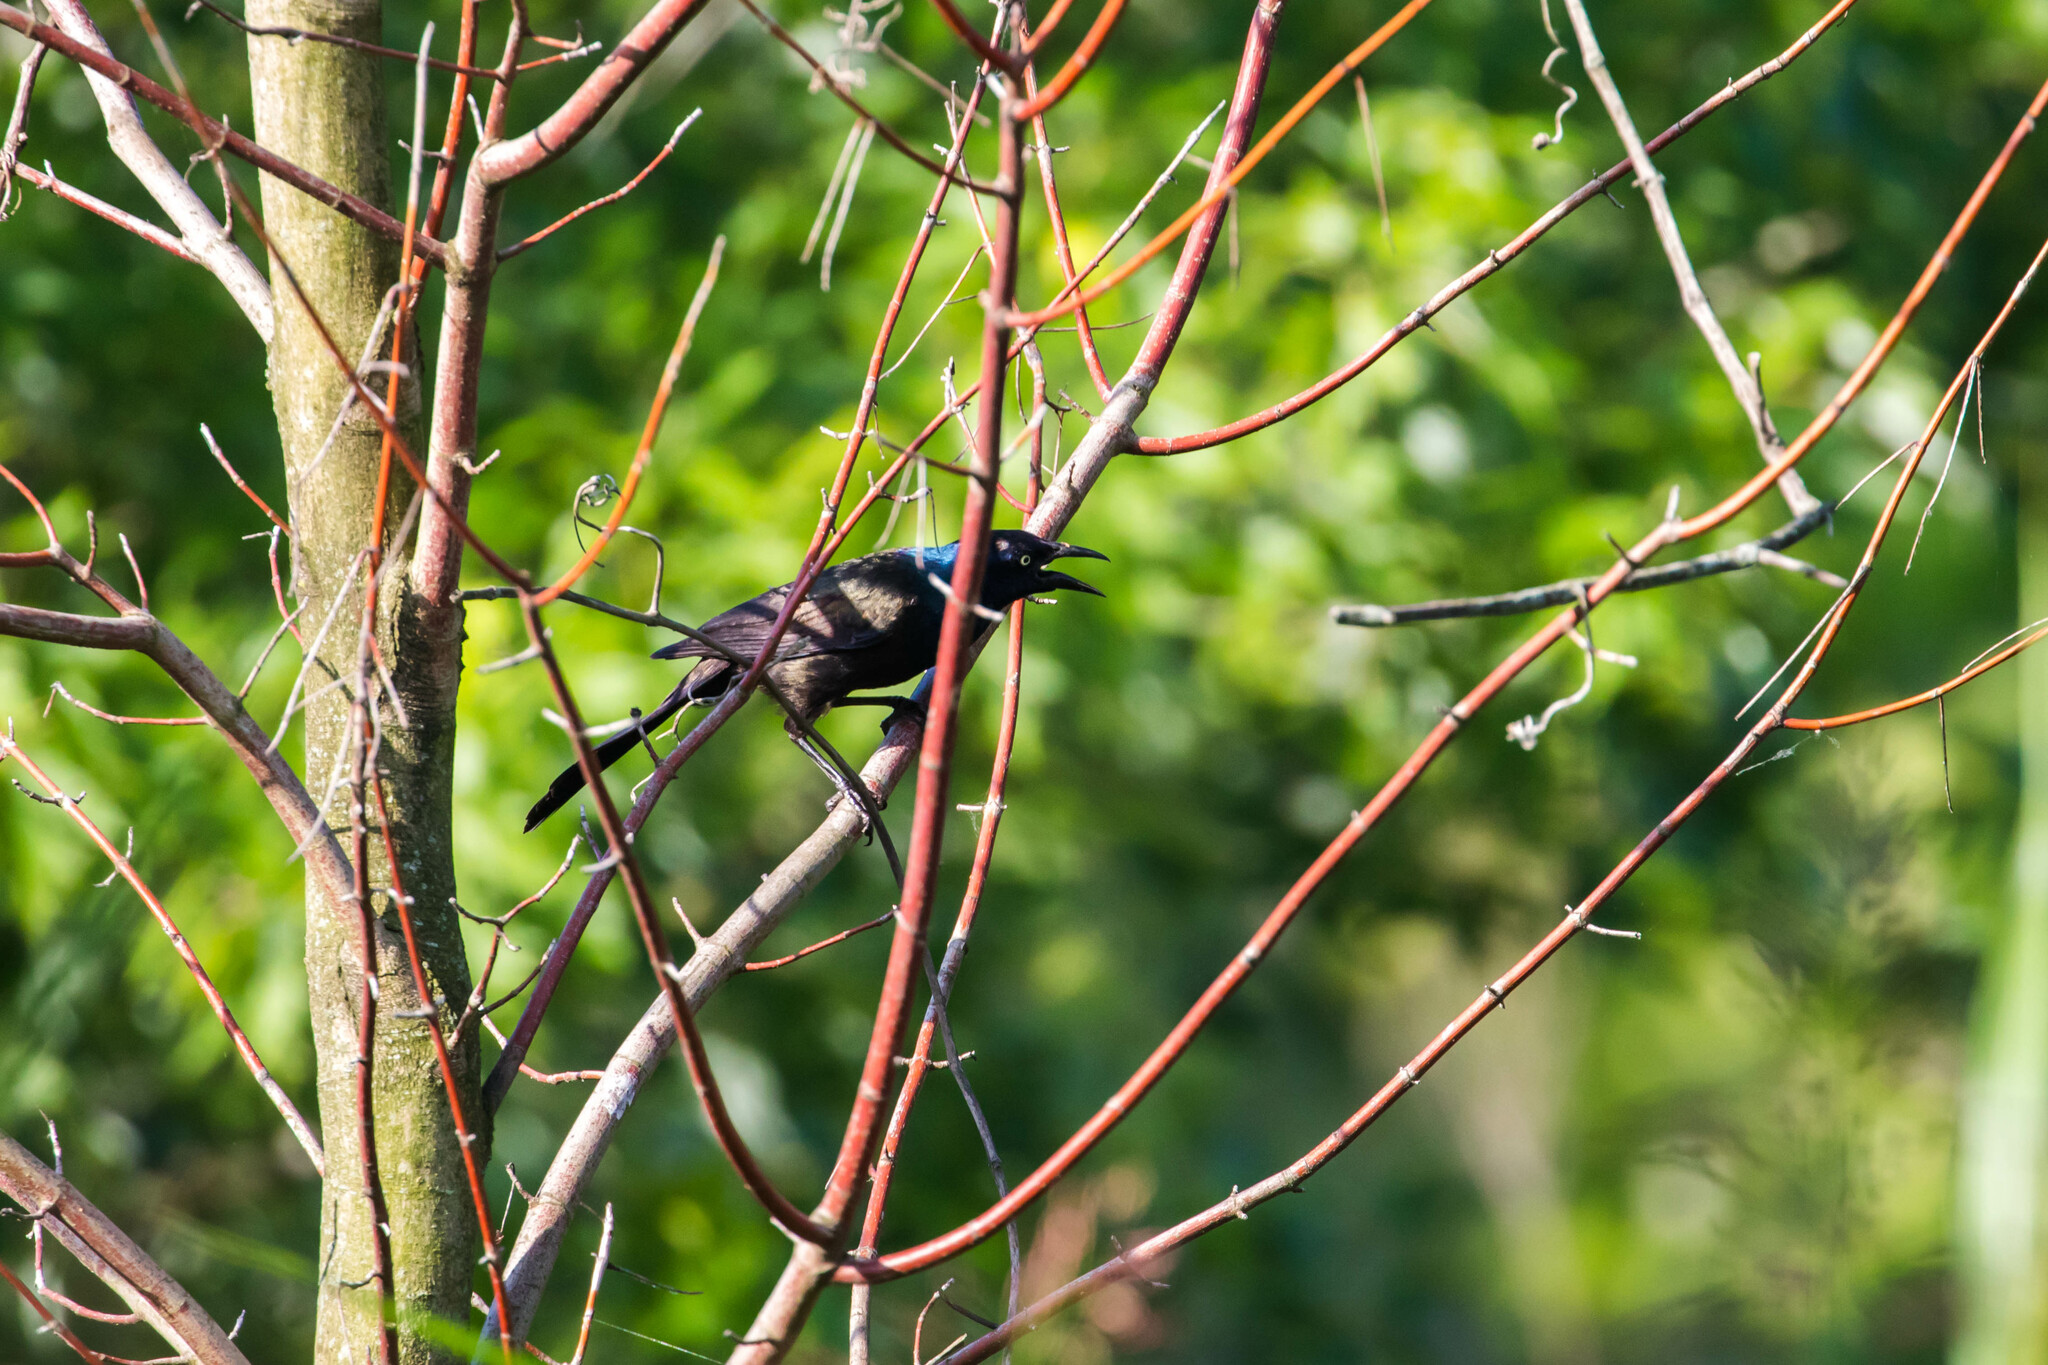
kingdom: Animalia
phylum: Chordata
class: Aves
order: Passeriformes
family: Icteridae
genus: Quiscalus
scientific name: Quiscalus quiscula
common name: Common grackle
